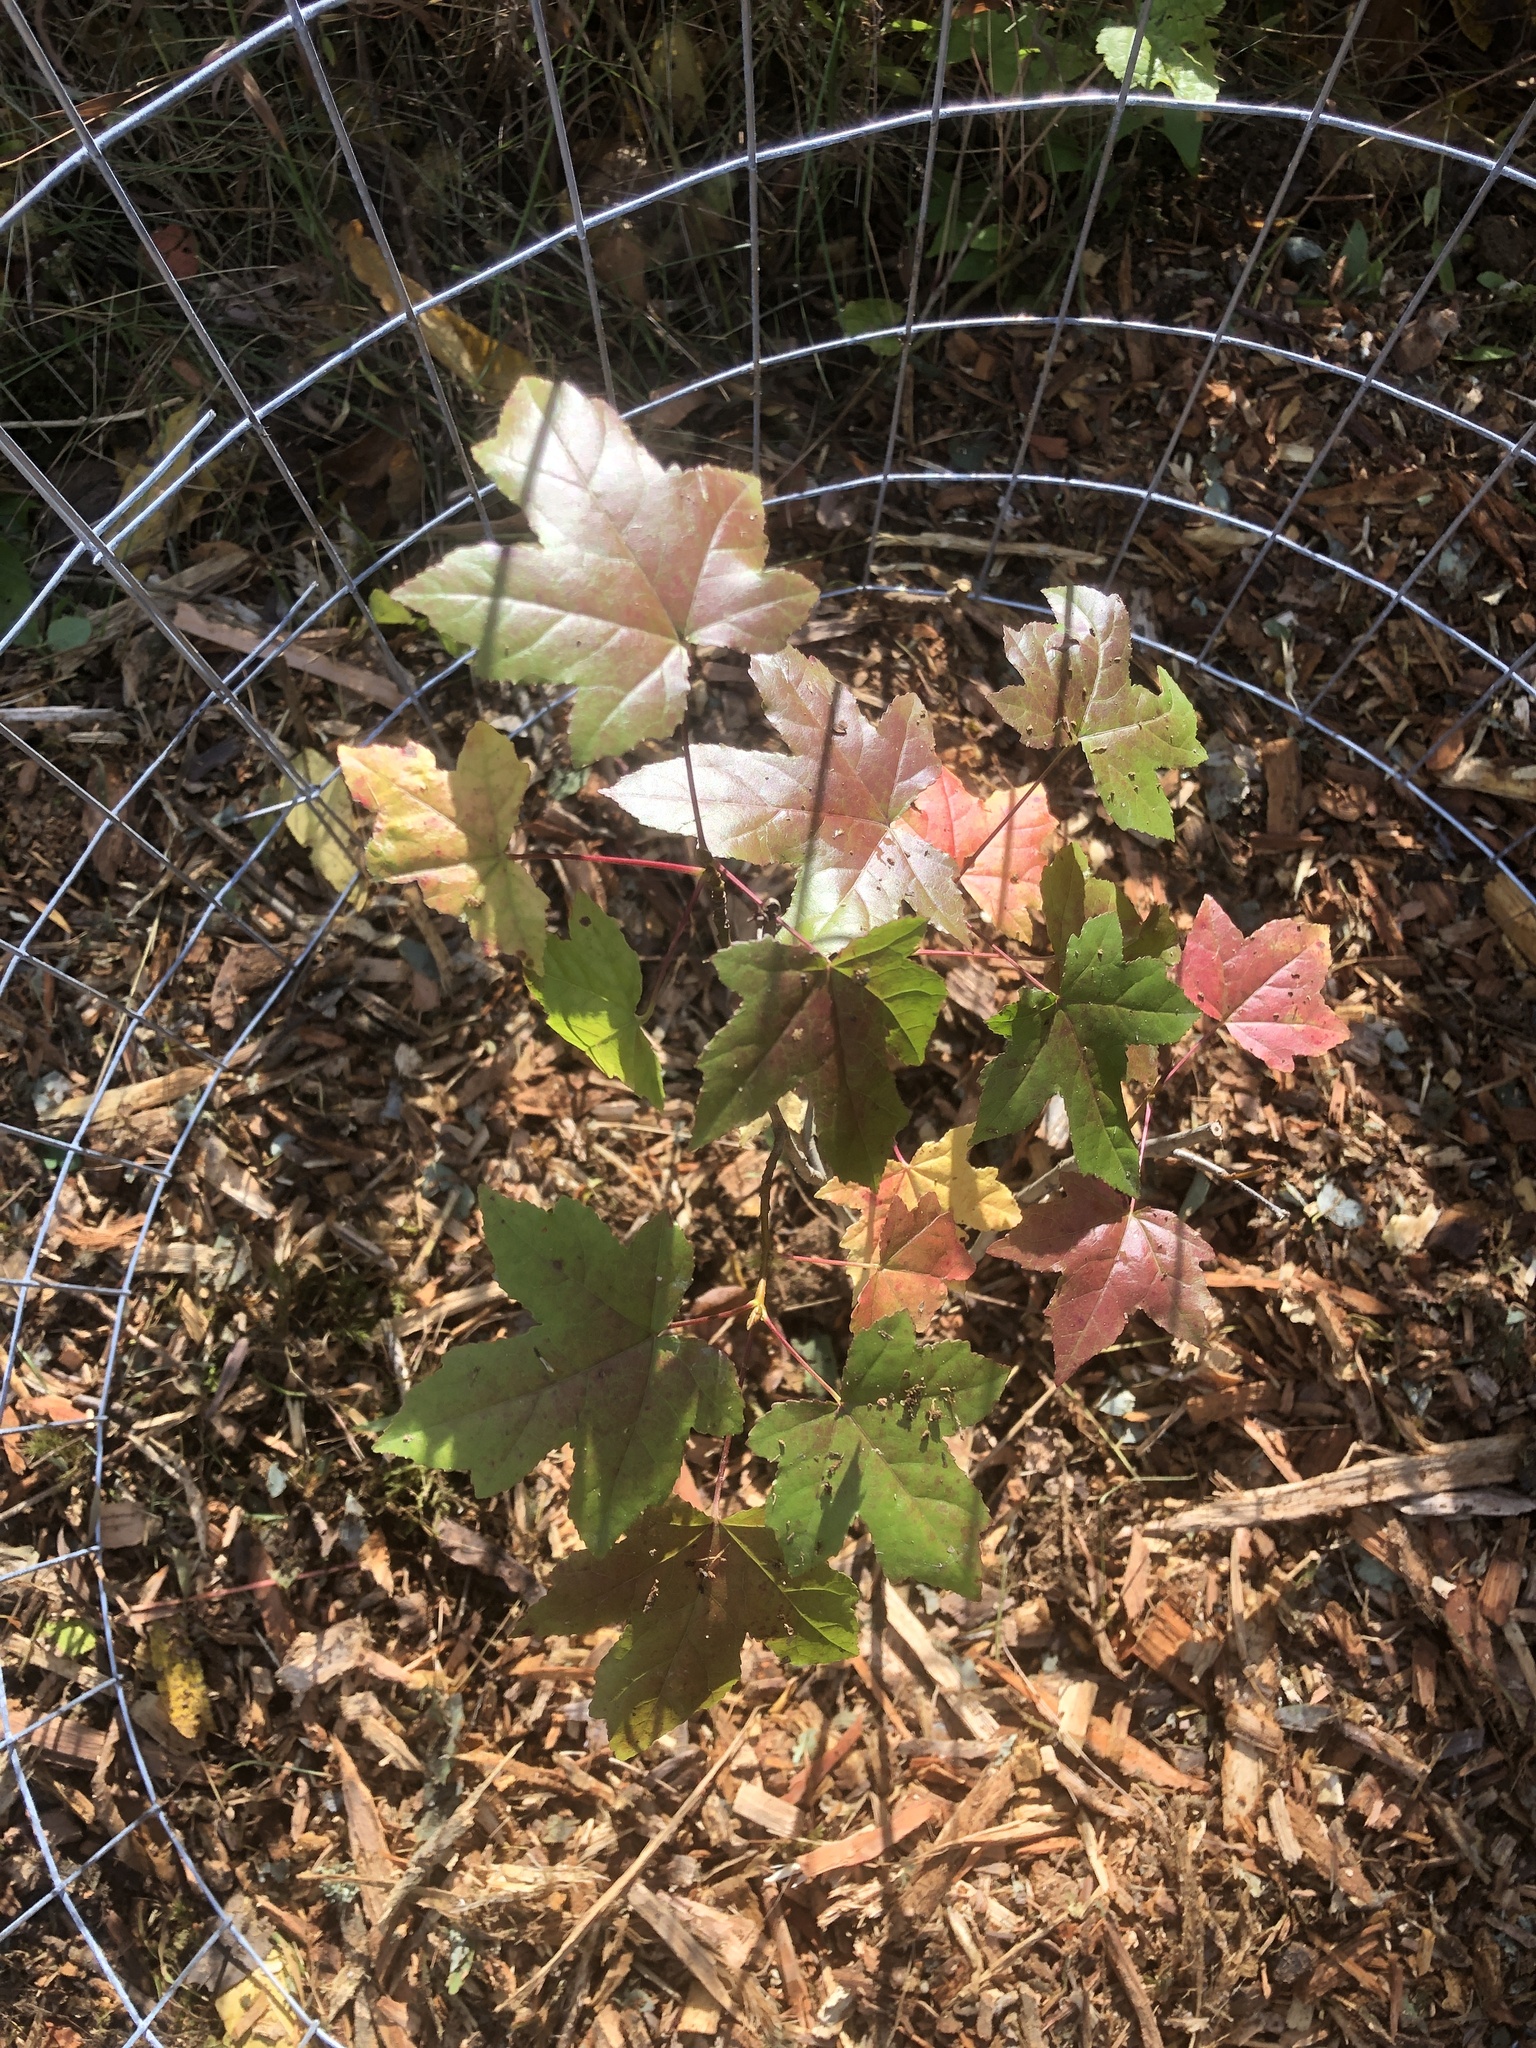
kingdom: Plantae
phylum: Tracheophyta
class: Magnoliopsida
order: Saxifragales
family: Altingiaceae
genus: Liquidambar
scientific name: Liquidambar styraciflua
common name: Sweet gum
